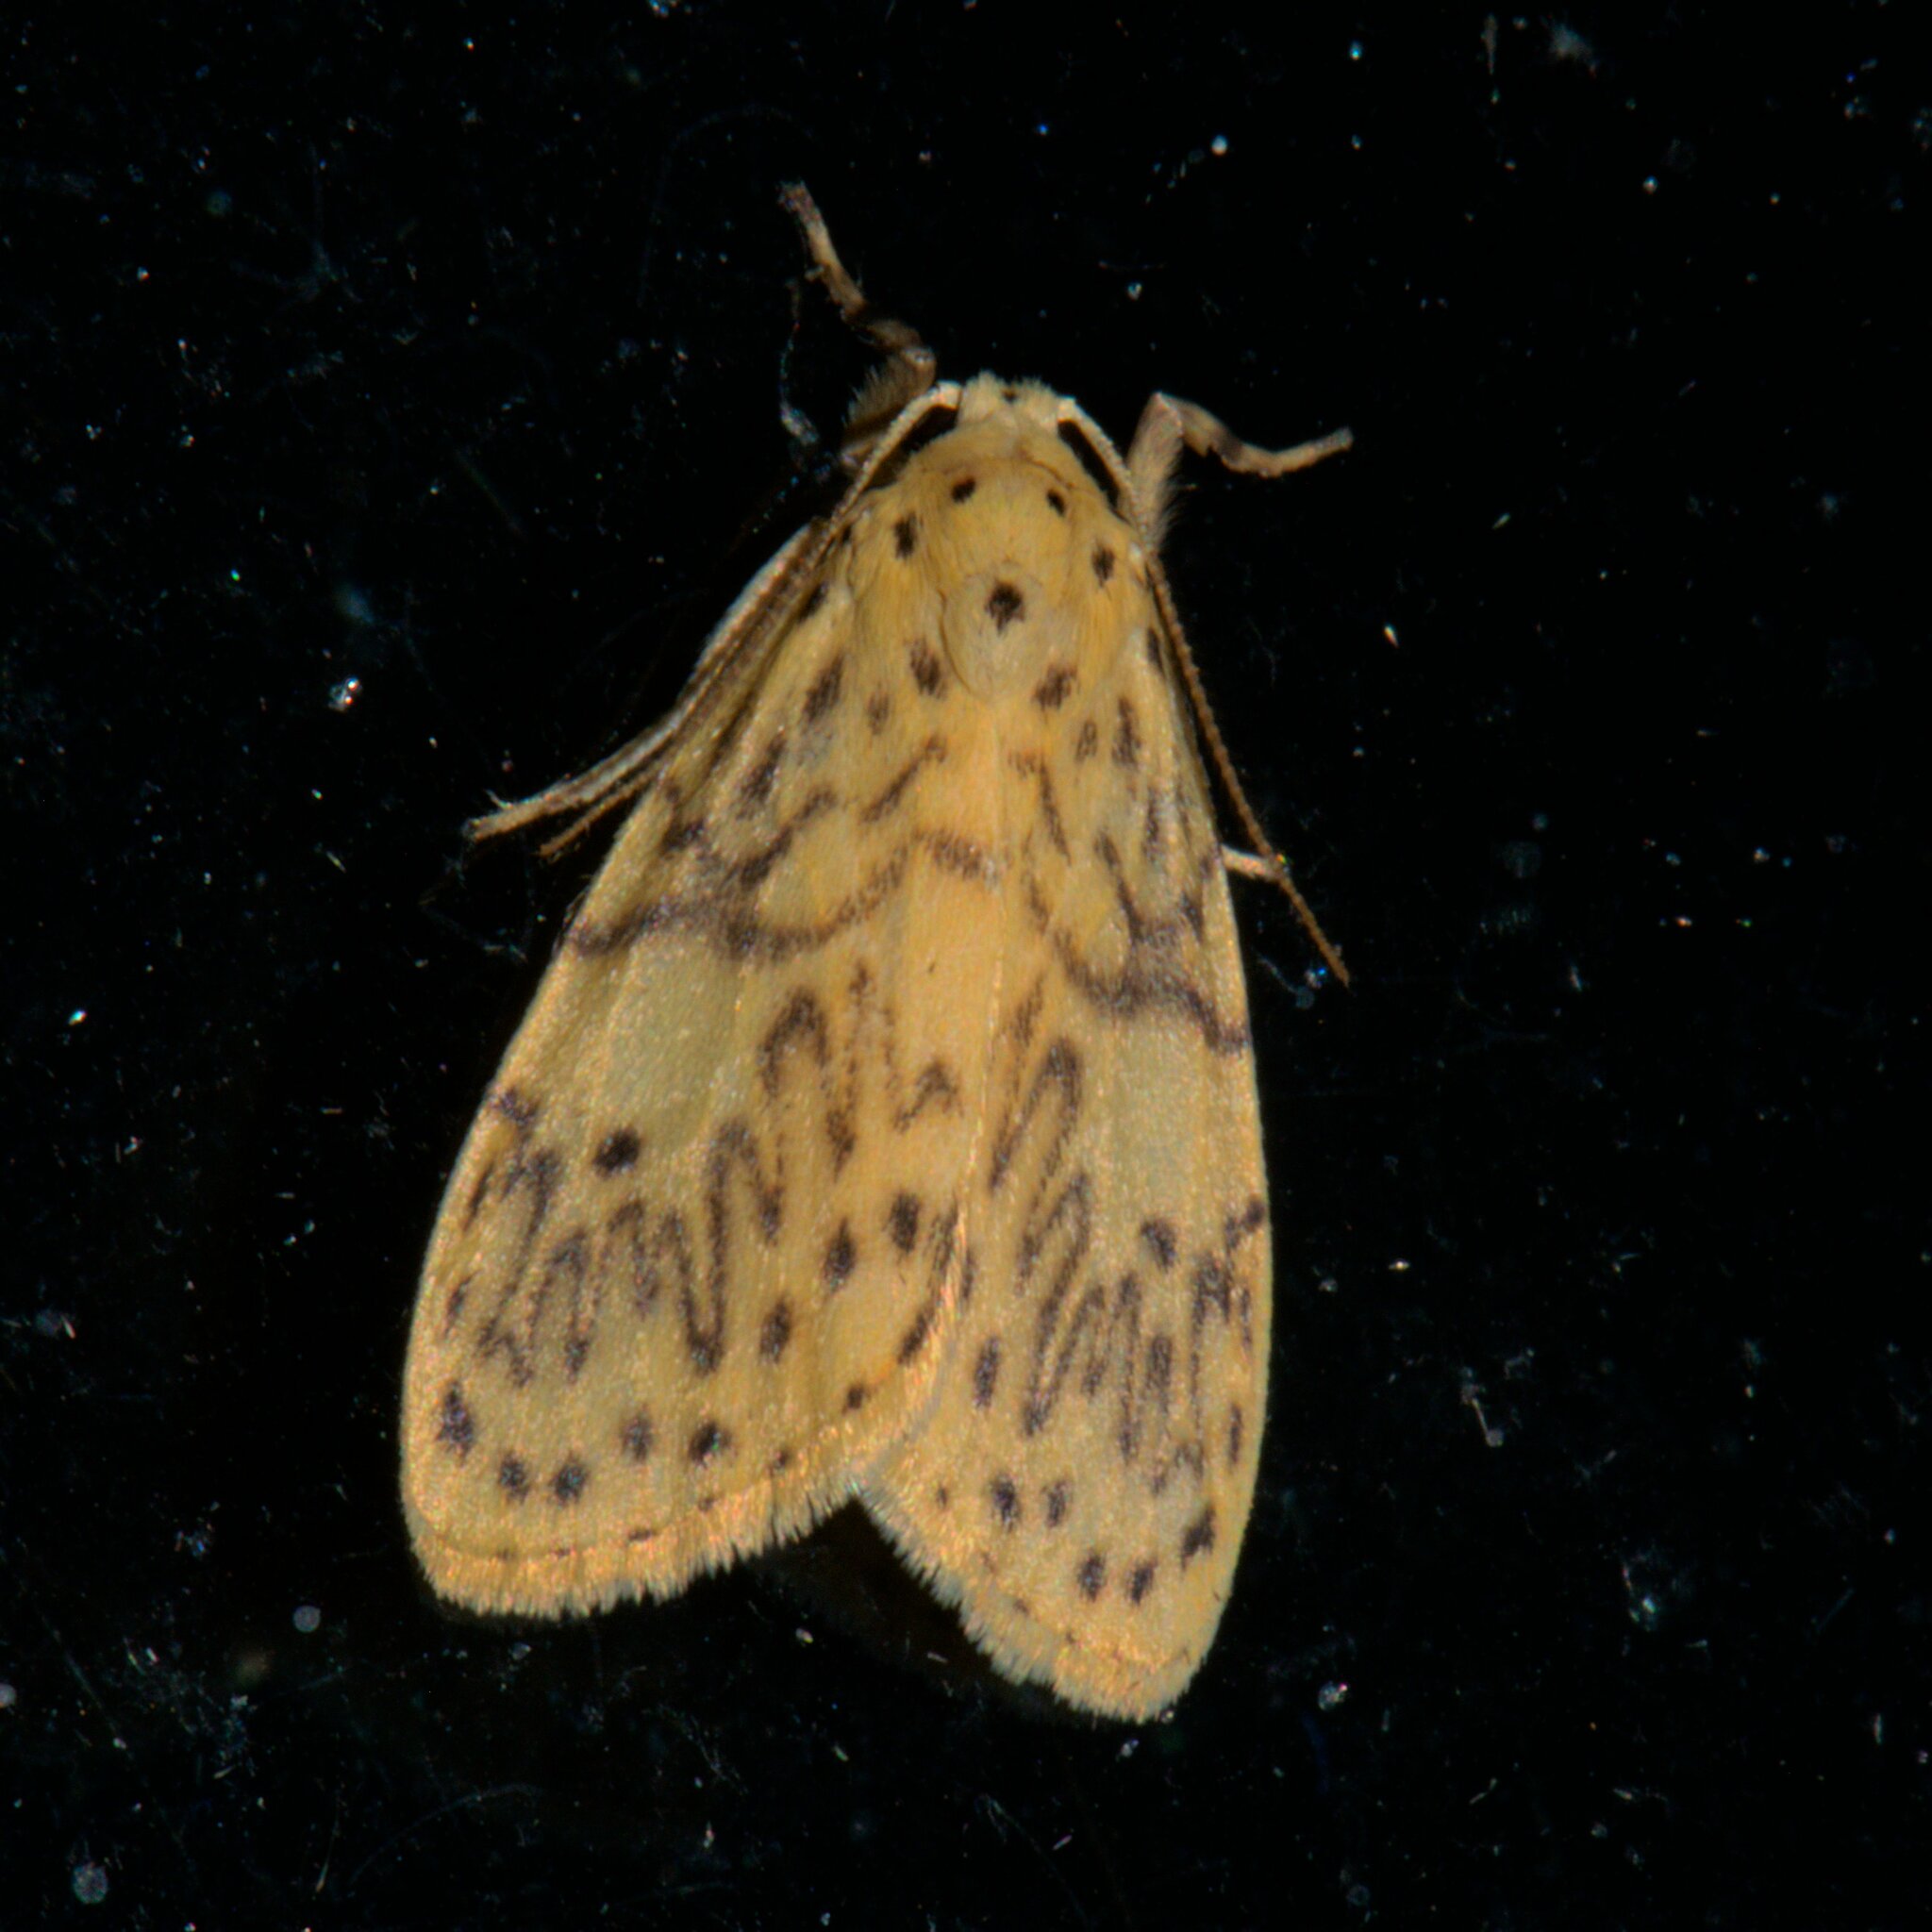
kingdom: Animalia
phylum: Arthropoda
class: Insecta
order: Lepidoptera
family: Erebidae
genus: Miltochrista
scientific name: Miltochrista undulosa
